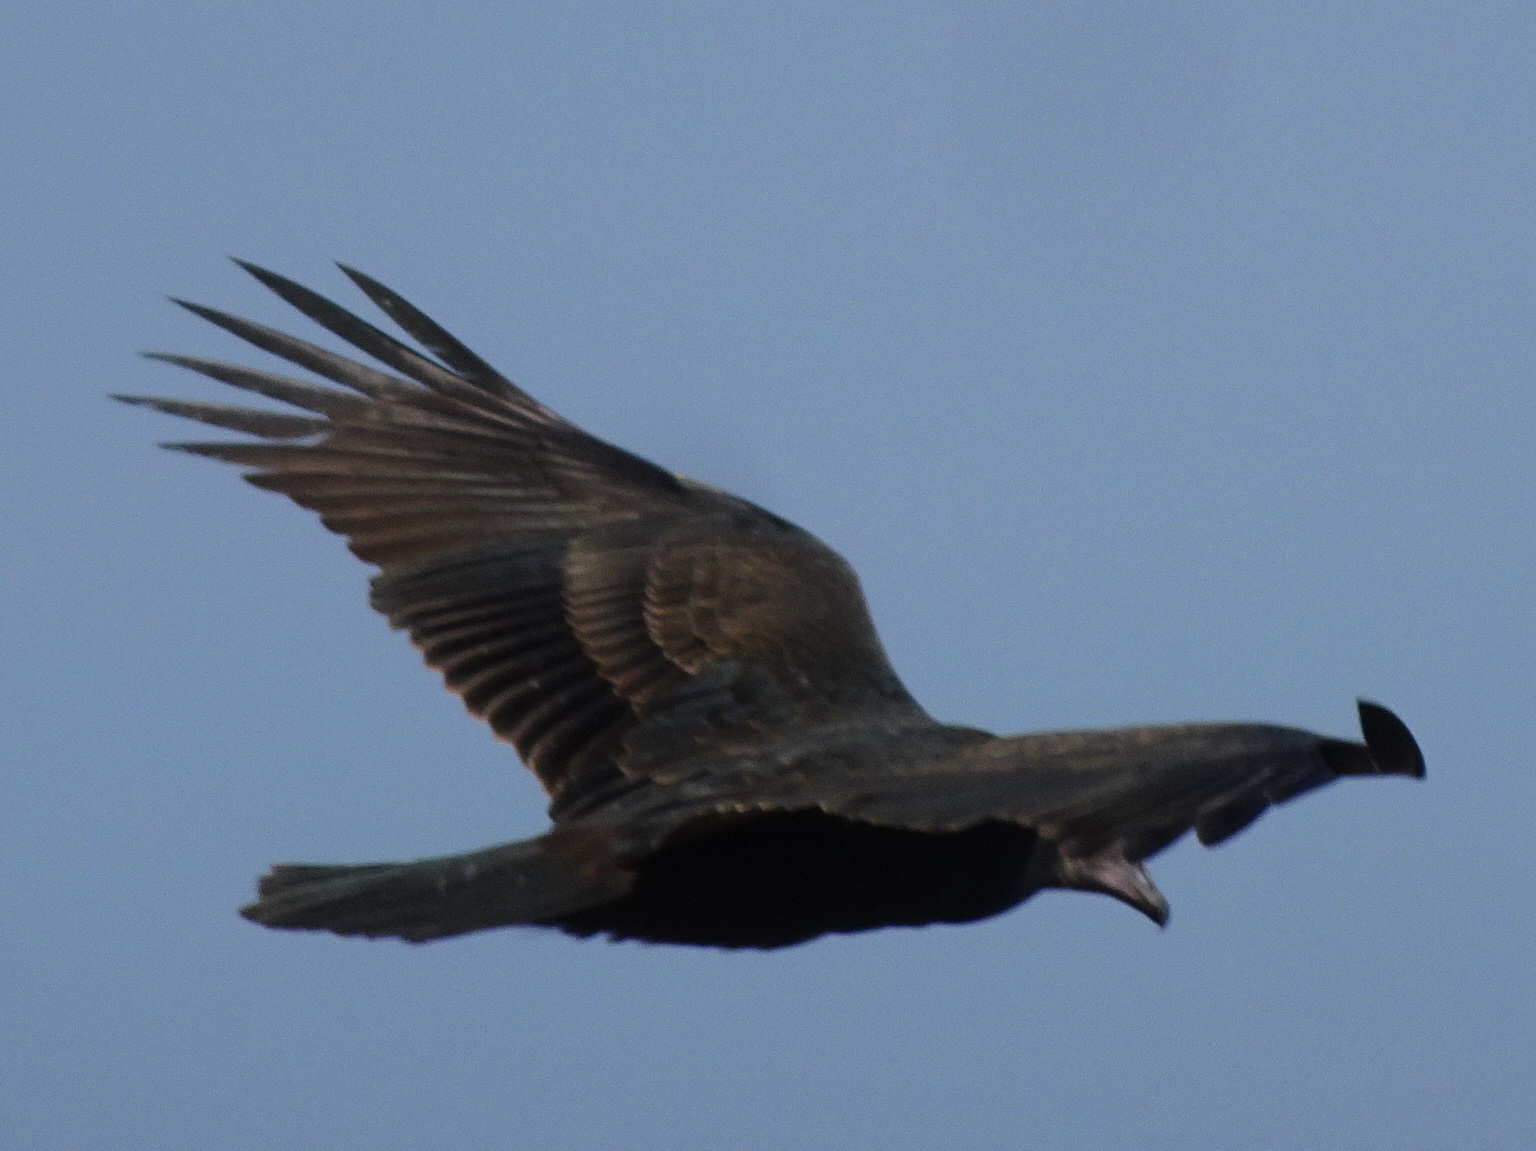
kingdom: Animalia
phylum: Chordata
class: Aves
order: Accipitriformes
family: Cathartidae
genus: Cathartes
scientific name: Cathartes aura
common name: Turkey vulture
